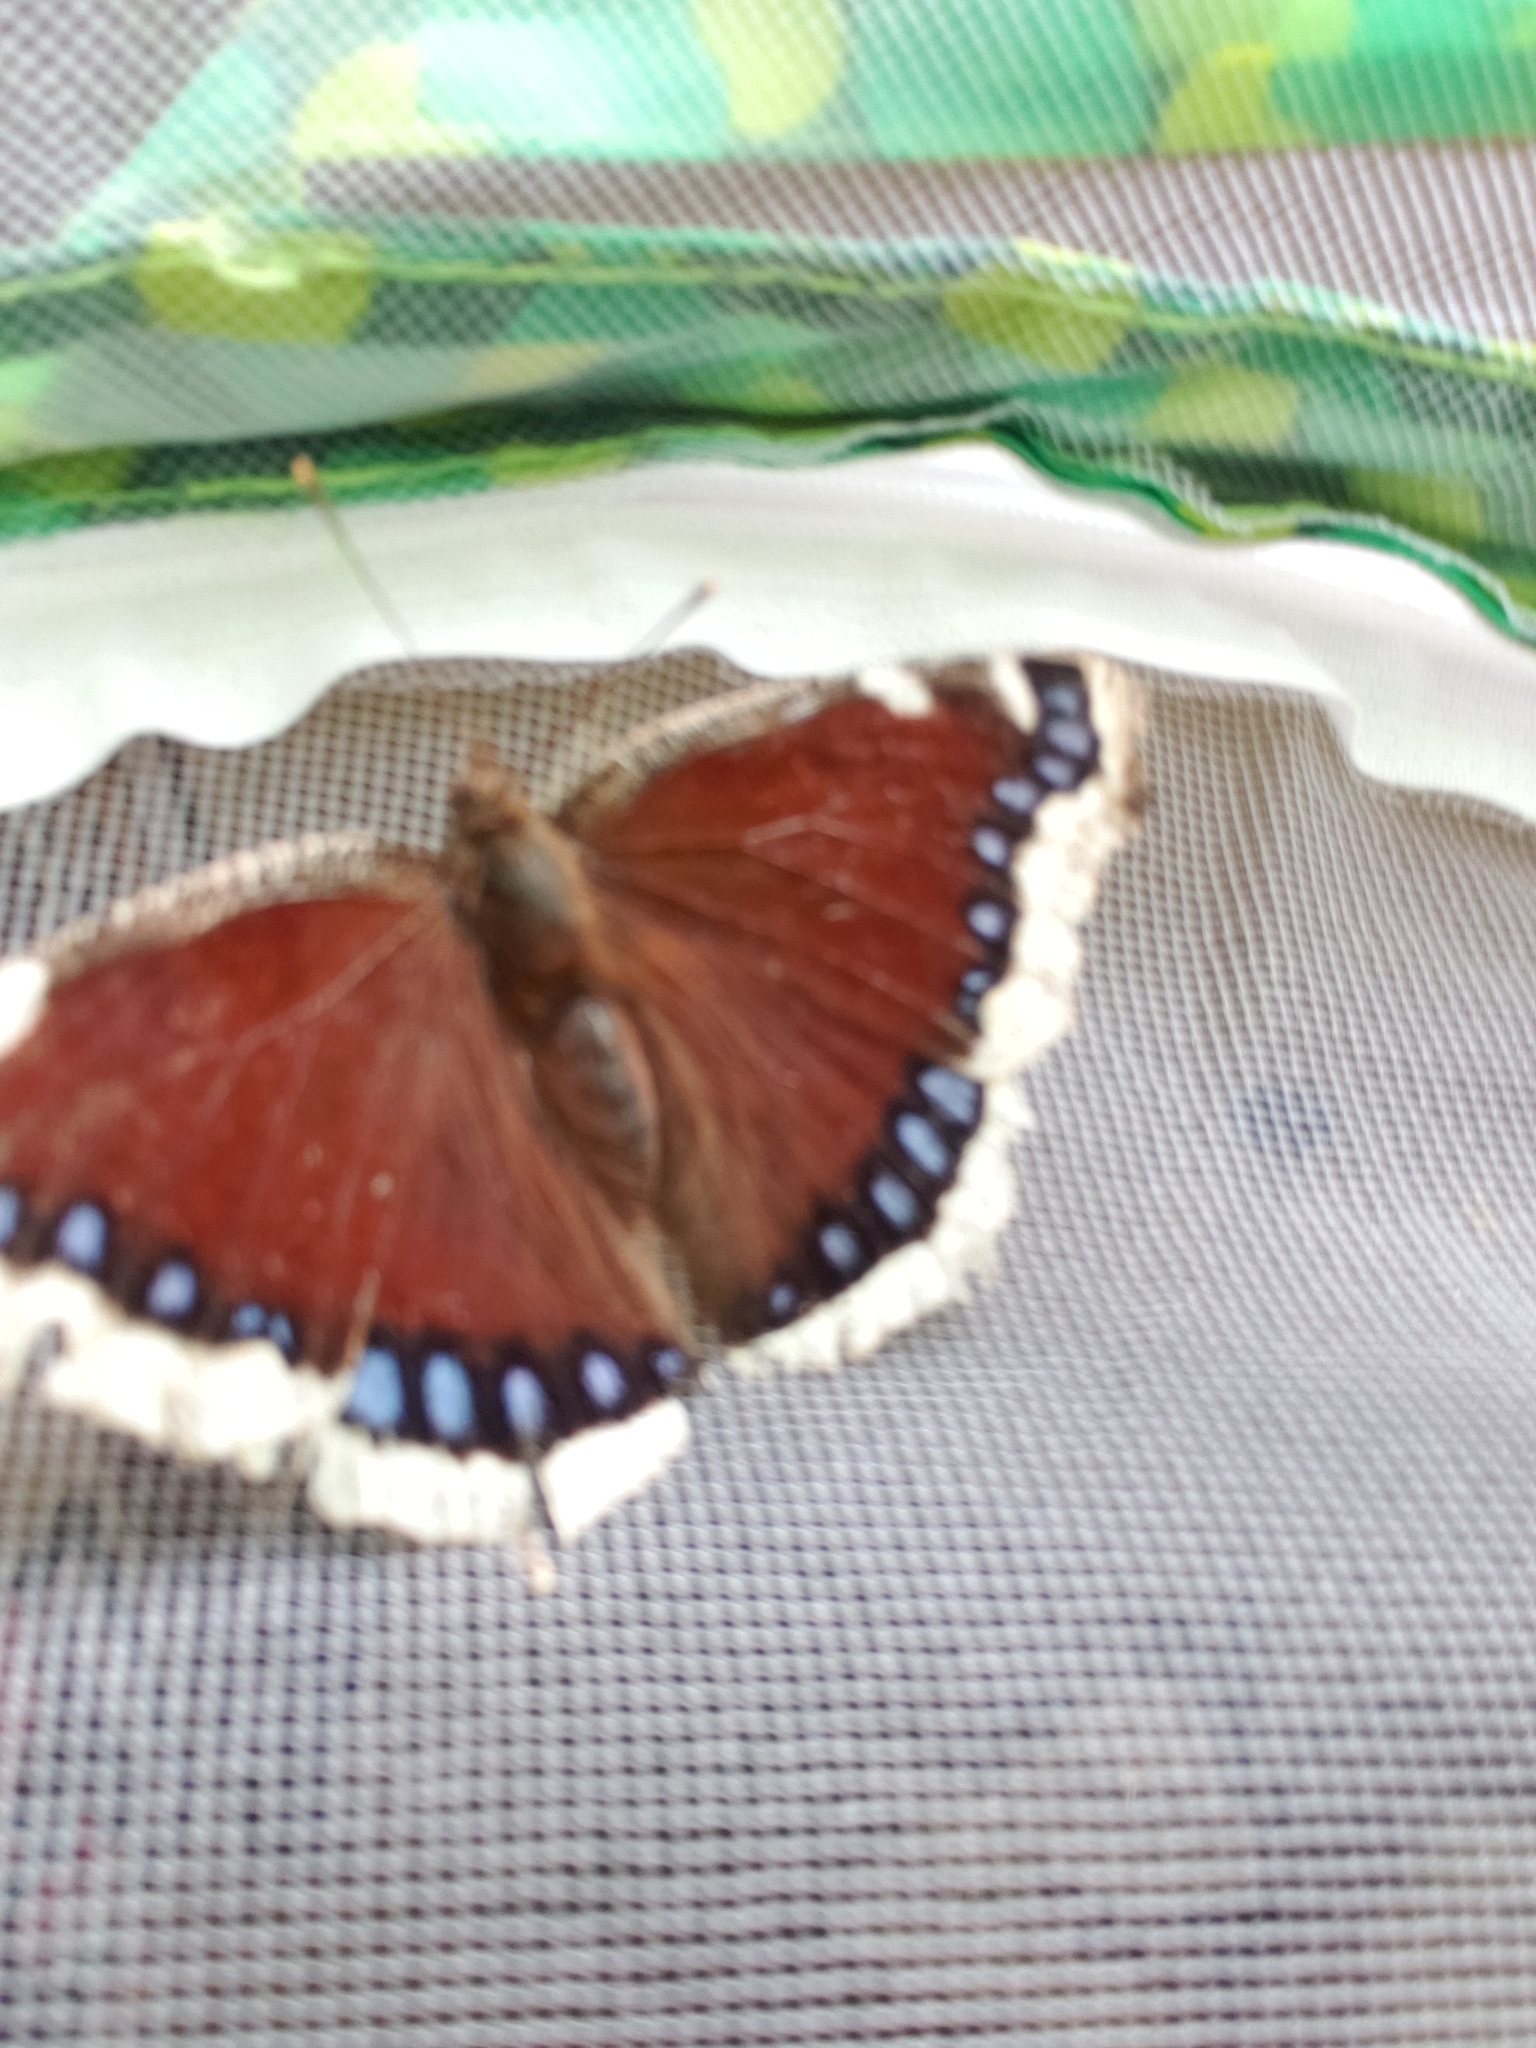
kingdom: Animalia
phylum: Arthropoda
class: Insecta
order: Lepidoptera
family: Nymphalidae
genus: Nymphalis
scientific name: Nymphalis antiopa
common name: Camberwell beauty
